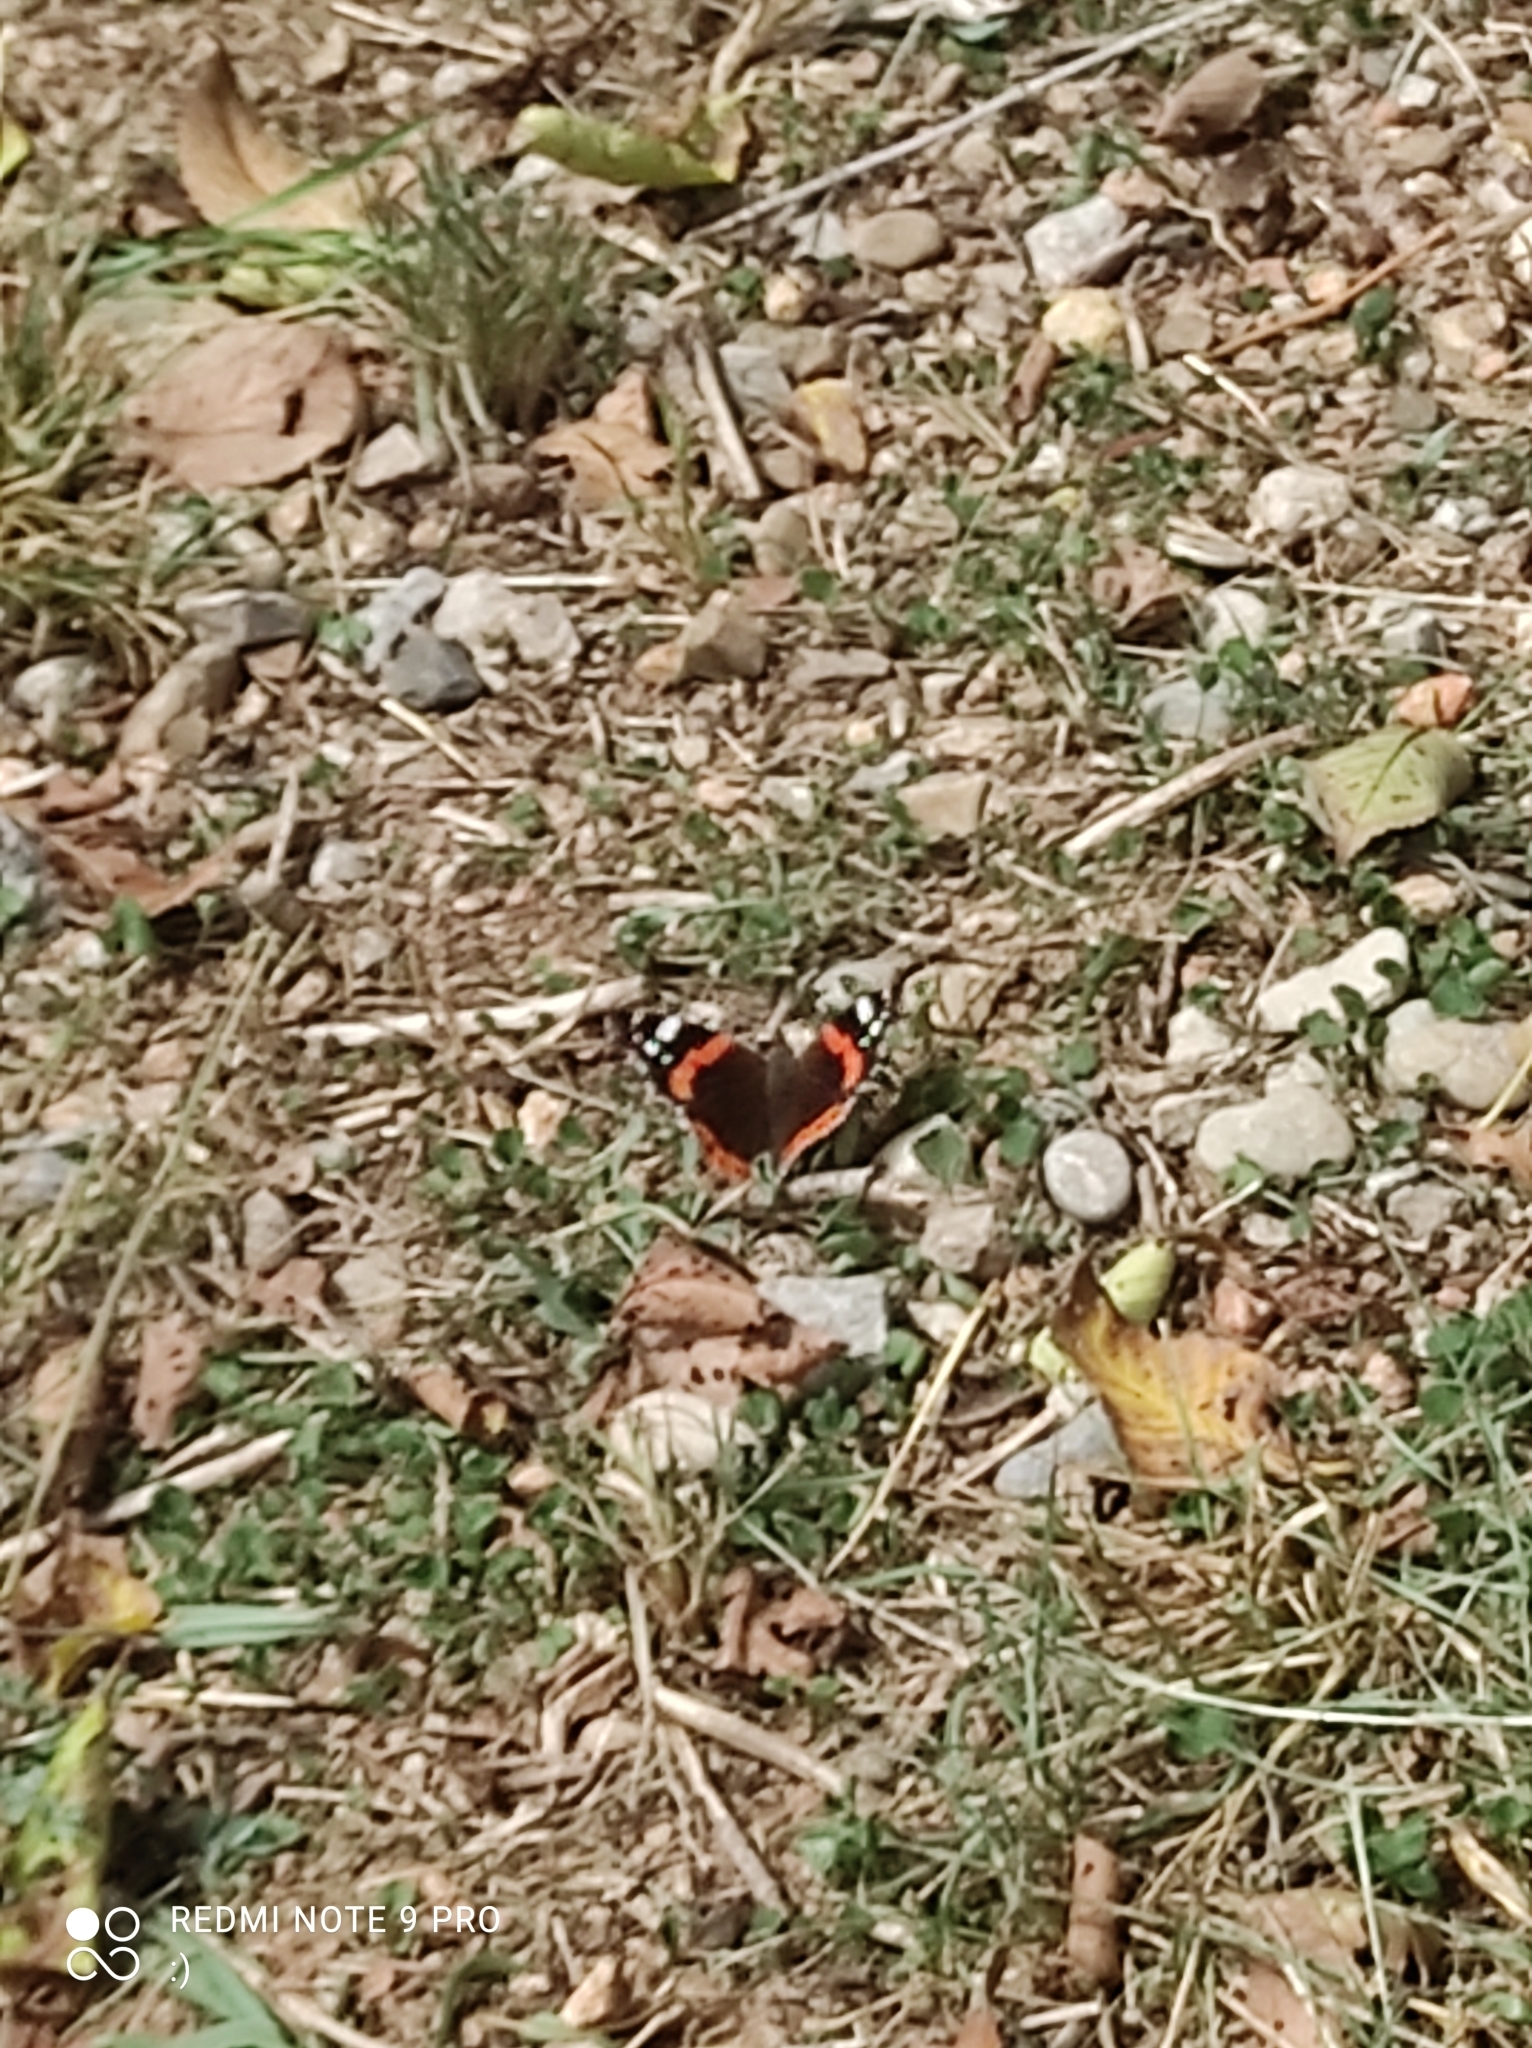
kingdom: Animalia
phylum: Arthropoda
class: Insecta
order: Lepidoptera
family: Nymphalidae
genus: Vanessa
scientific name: Vanessa atalanta
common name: Red admiral
